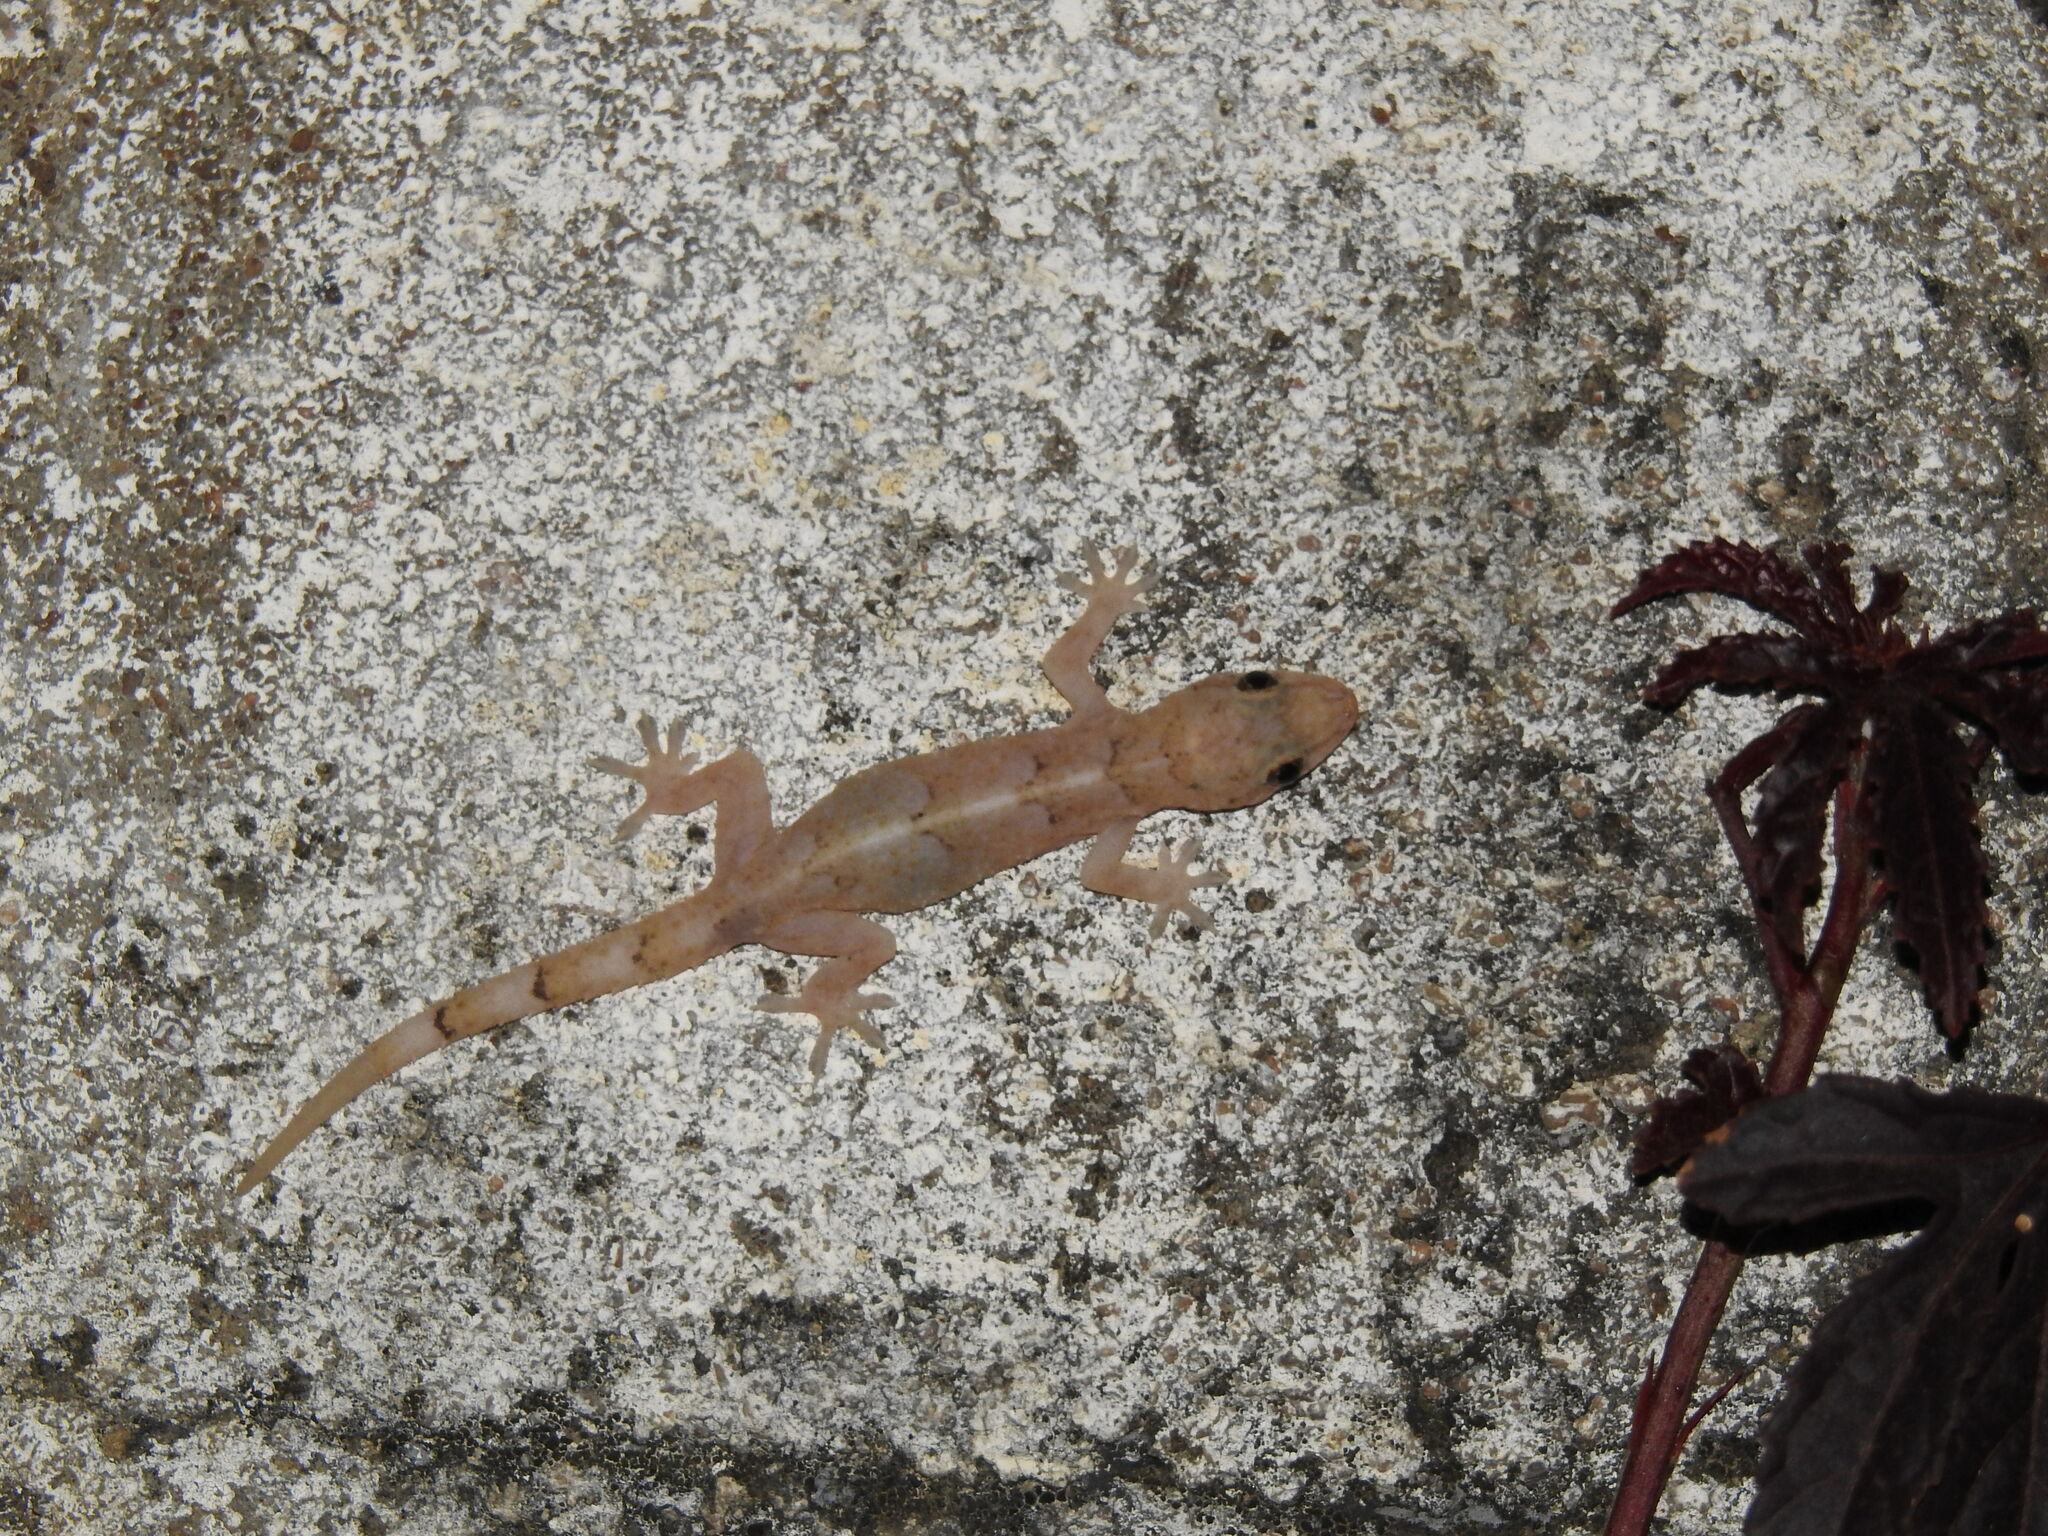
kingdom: Animalia
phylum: Chordata
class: Squamata
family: Gekkonidae
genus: Hemidactylus
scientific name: Hemidactylus mabouia
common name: House gecko
